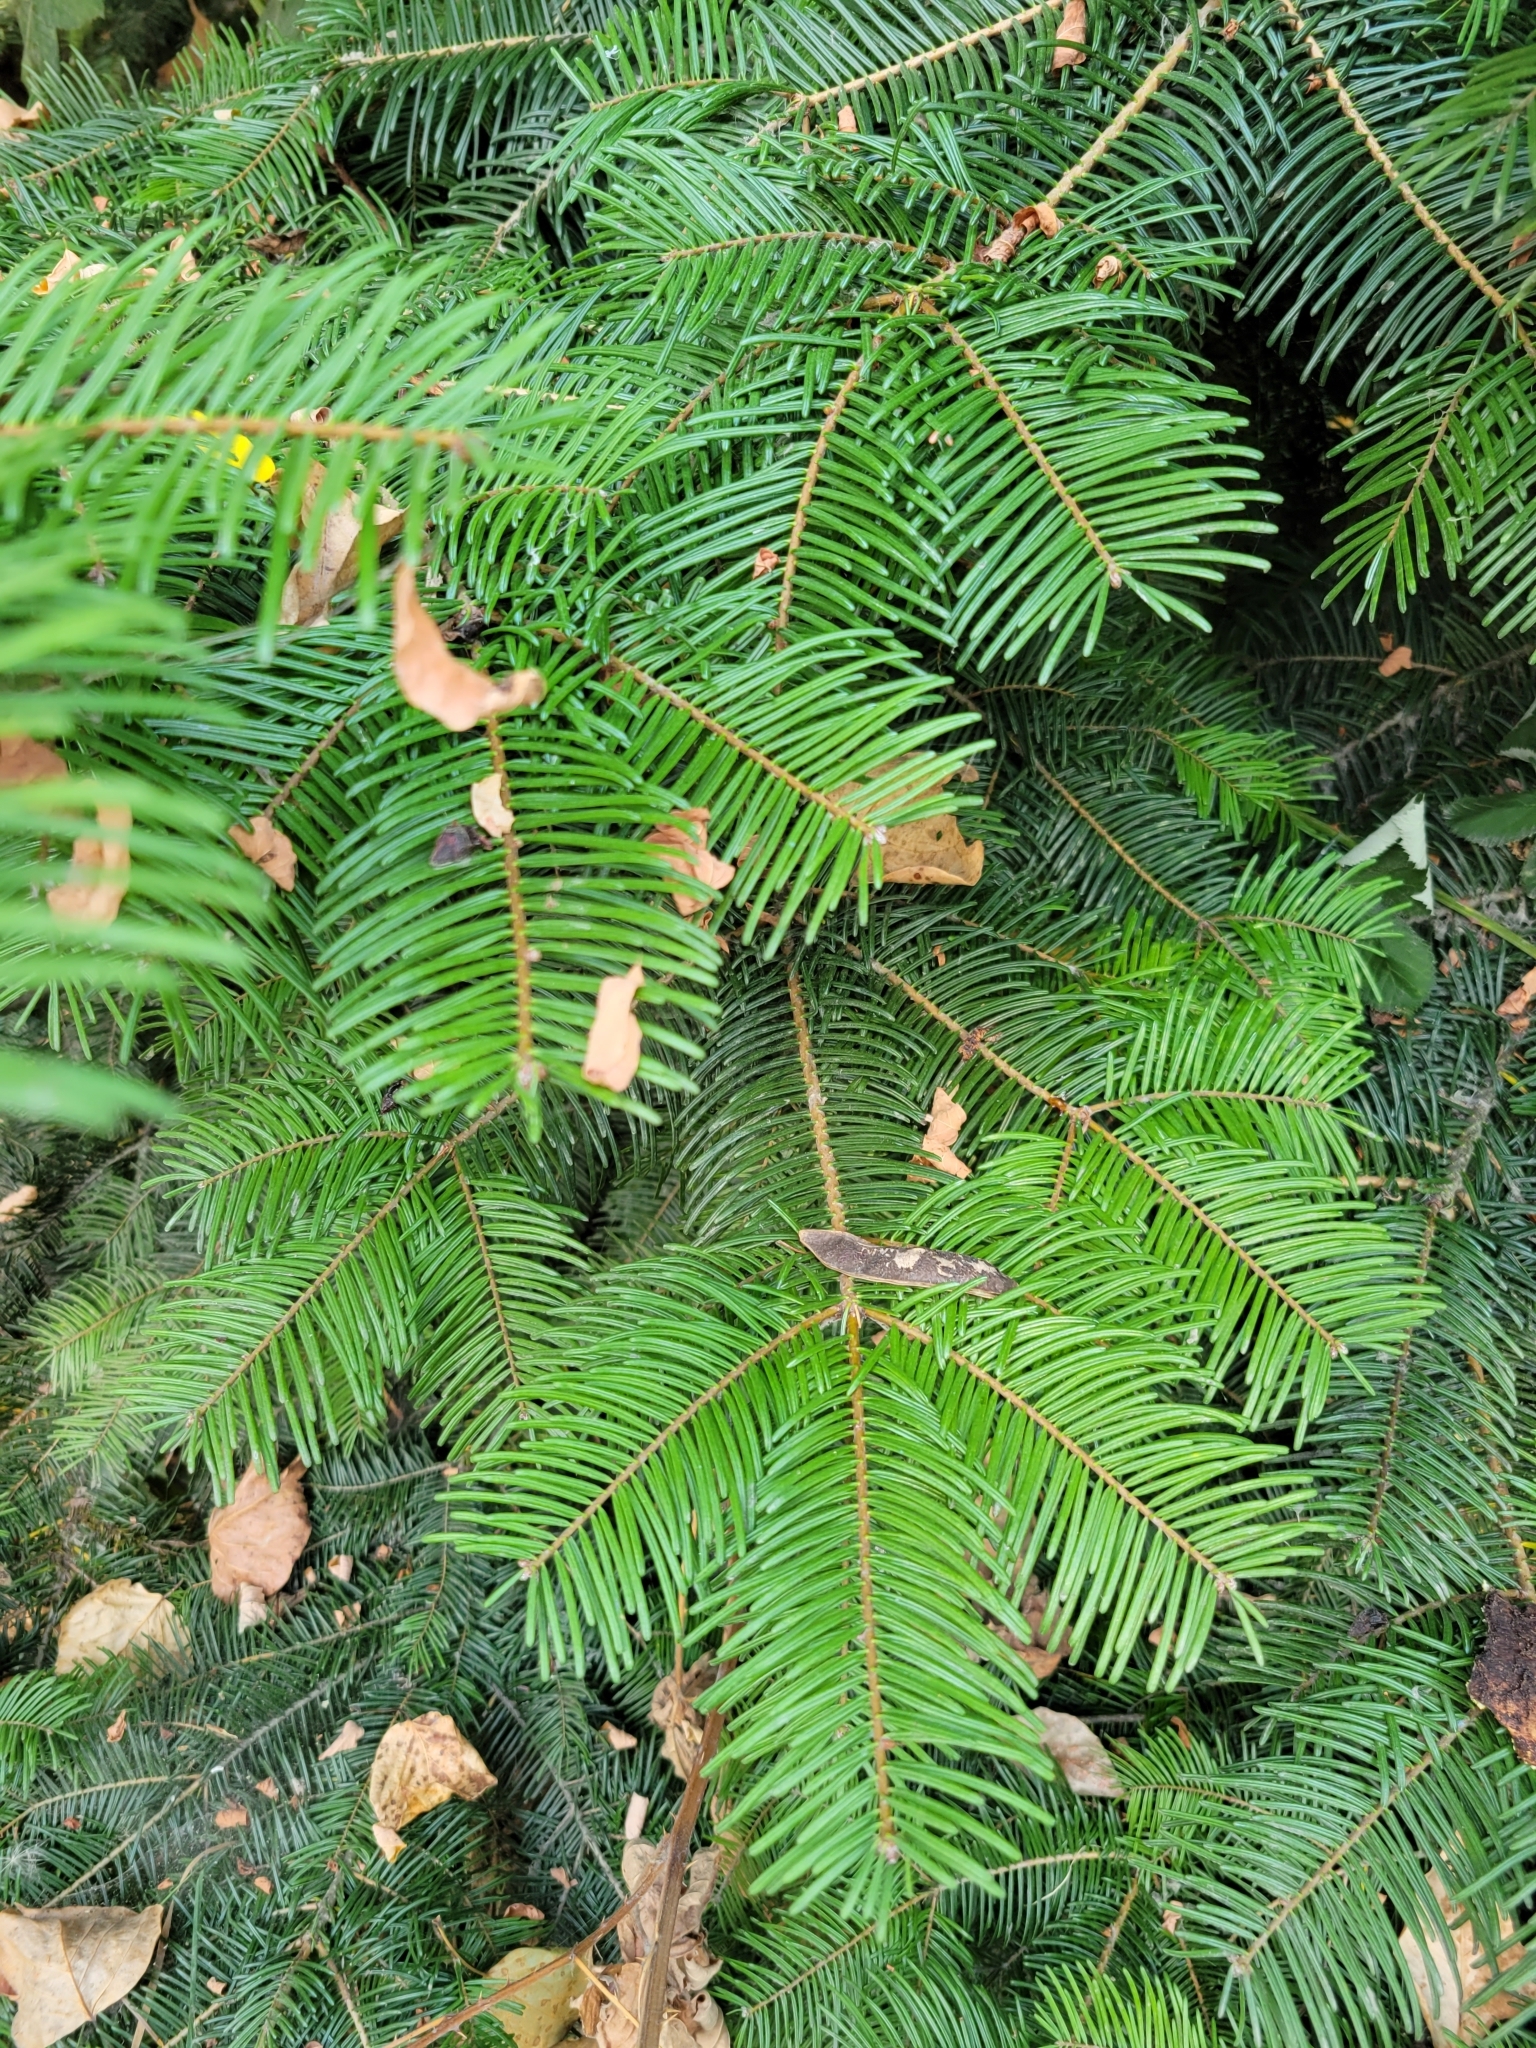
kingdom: Plantae
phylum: Tracheophyta
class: Pinopsida
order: Pinales
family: Pinaceae
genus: Abies
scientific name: Abies grandis
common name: Giant fir
